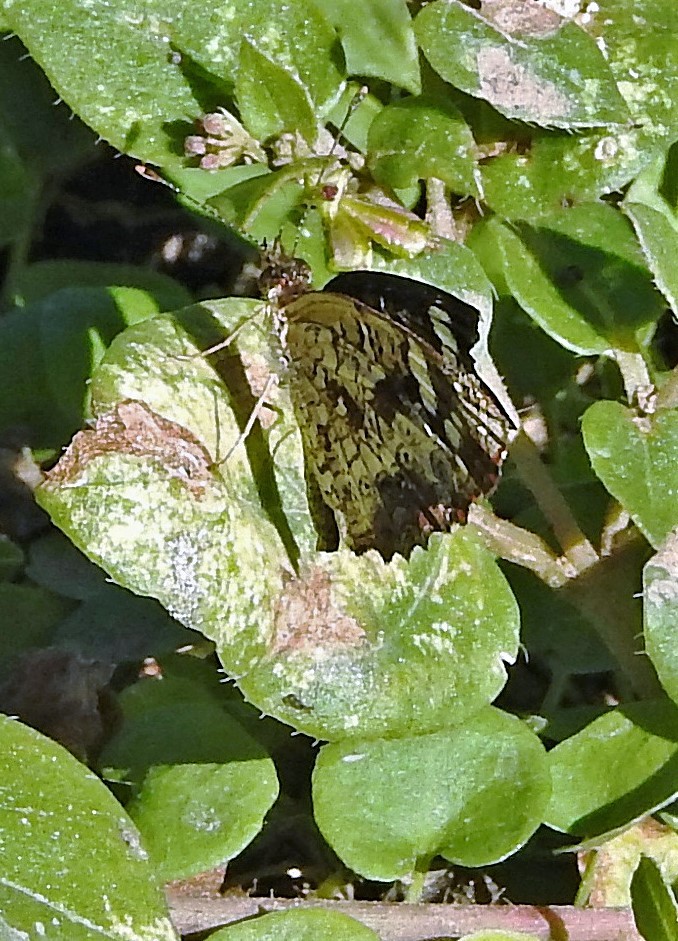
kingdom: Animalia
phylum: Arthropoda
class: Insecta
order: Lepidoptera
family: Nymphalidae
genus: Anthanassa
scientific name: Anthanassa hermas
